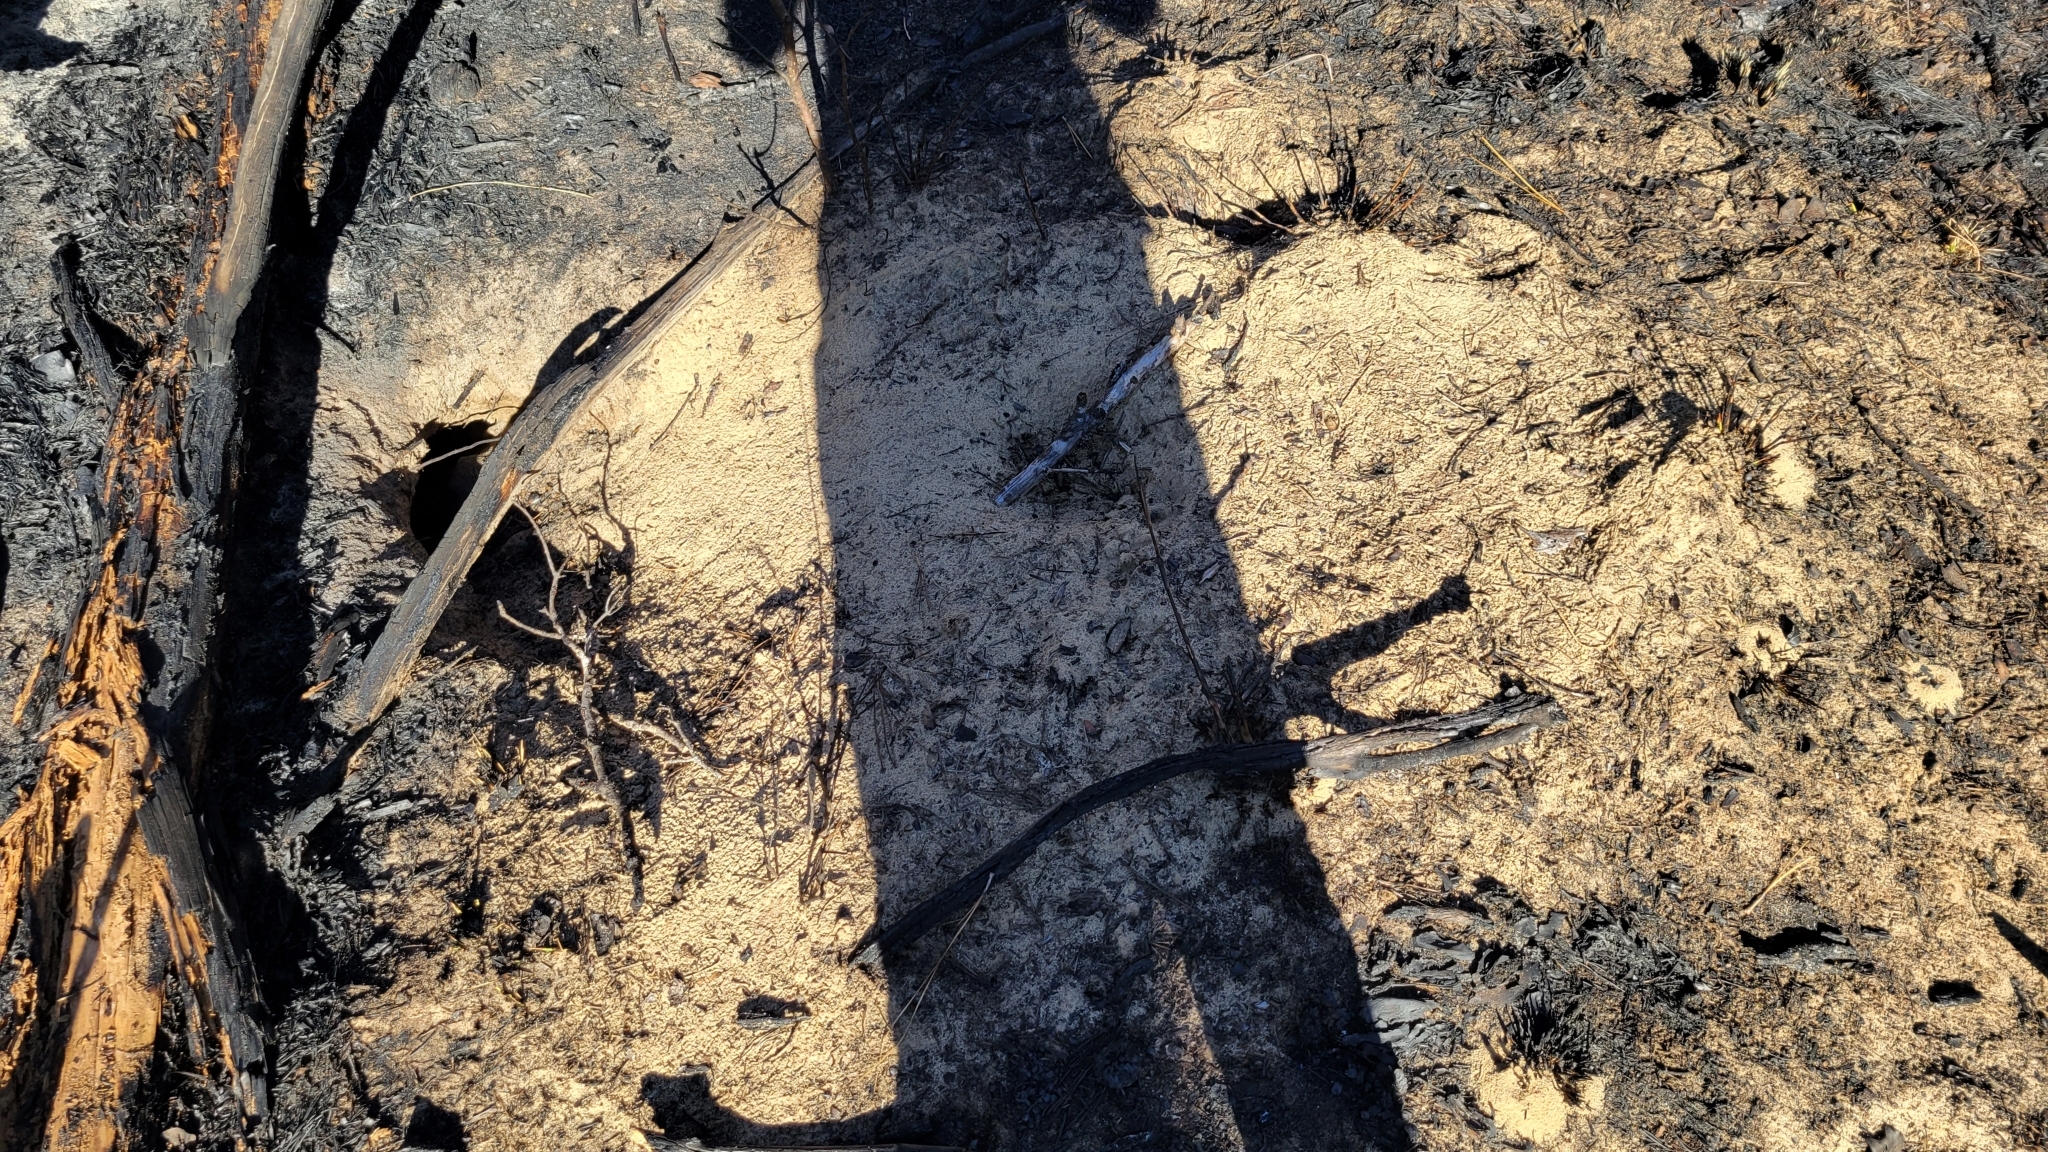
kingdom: Animalia
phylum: Chordata
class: Testudines
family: Testudinidae
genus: Gopherus
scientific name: Gopherus polyphemus
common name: Florida gopher tortoise
